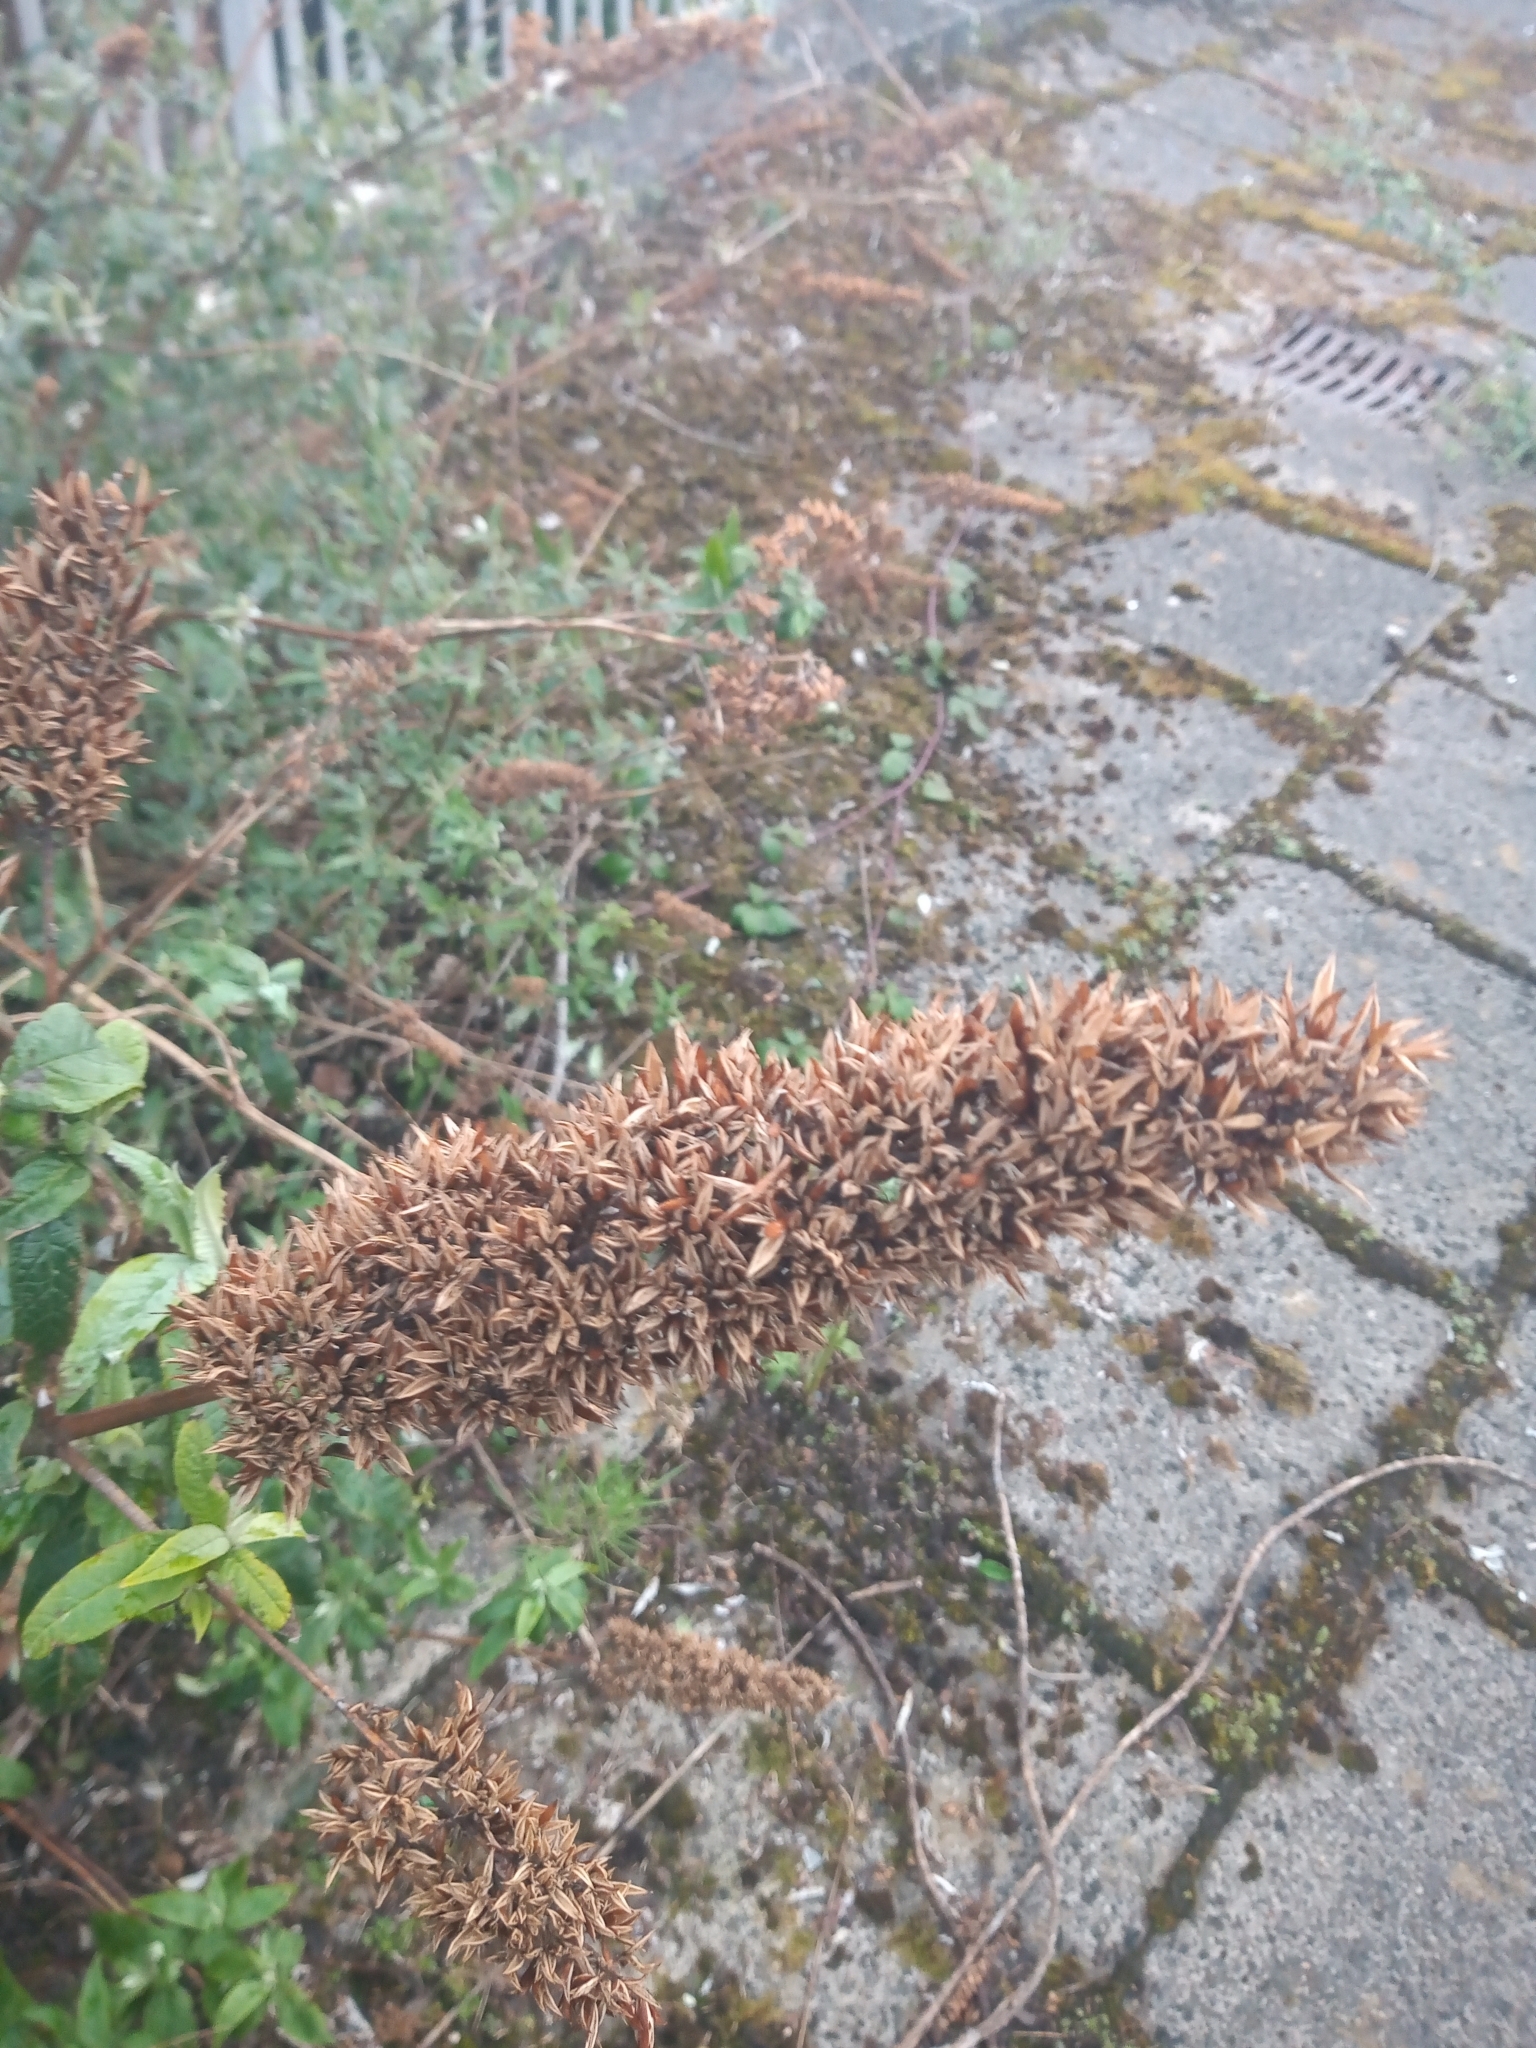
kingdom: Plantae
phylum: Tracheophyta
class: Magnoliopsida
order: Lamiales
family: Scrophulariaceae
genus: Buddleja
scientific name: Buddleja davidii
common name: Butterfly-bush
